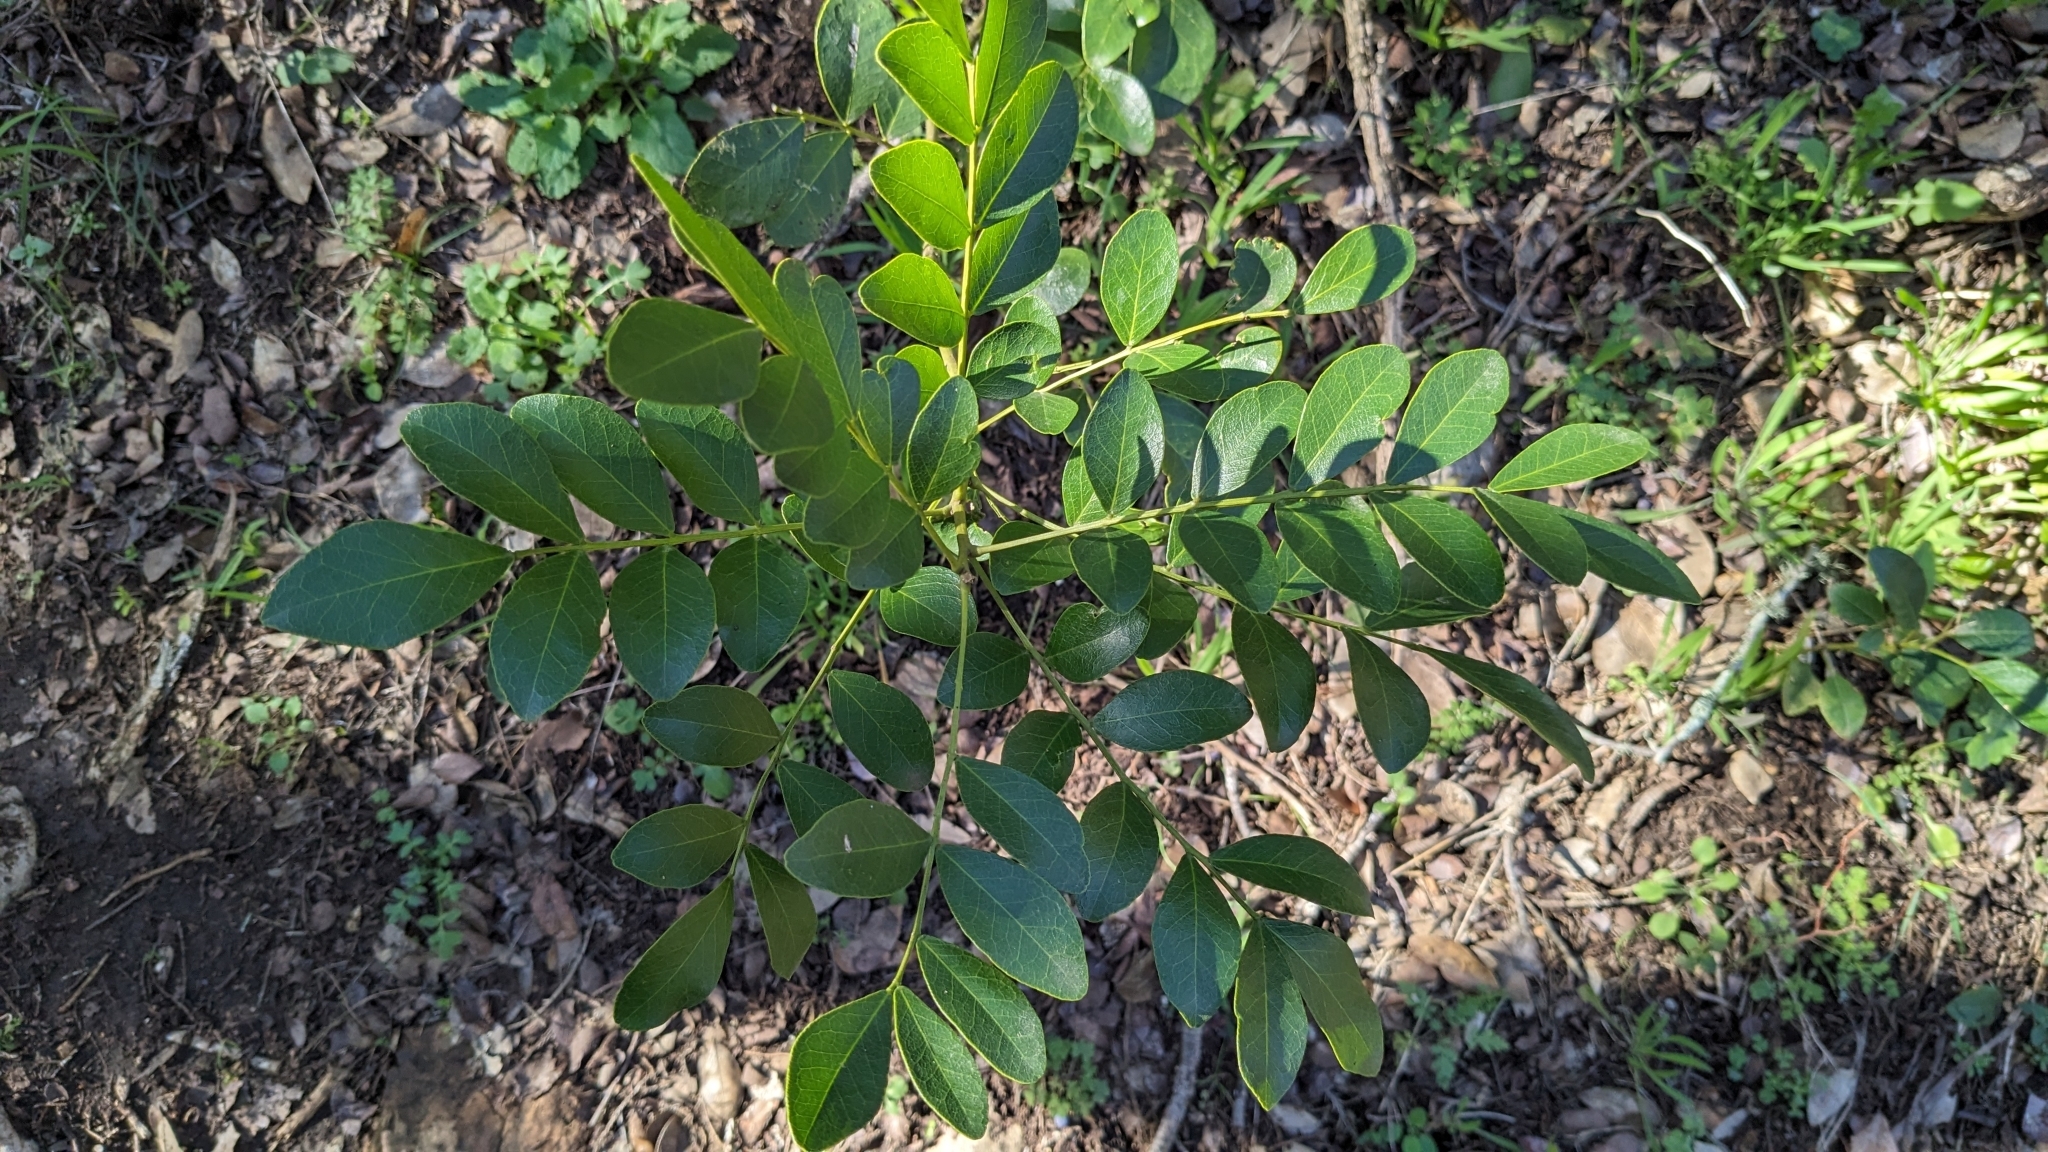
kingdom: Plantae
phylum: Tracheophyta
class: Magnoliopsida
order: Fabales
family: Fabaceae
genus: Dermatophyllum
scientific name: Dermatophyllum secundiflorum
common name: Texas-mountain-laurel
